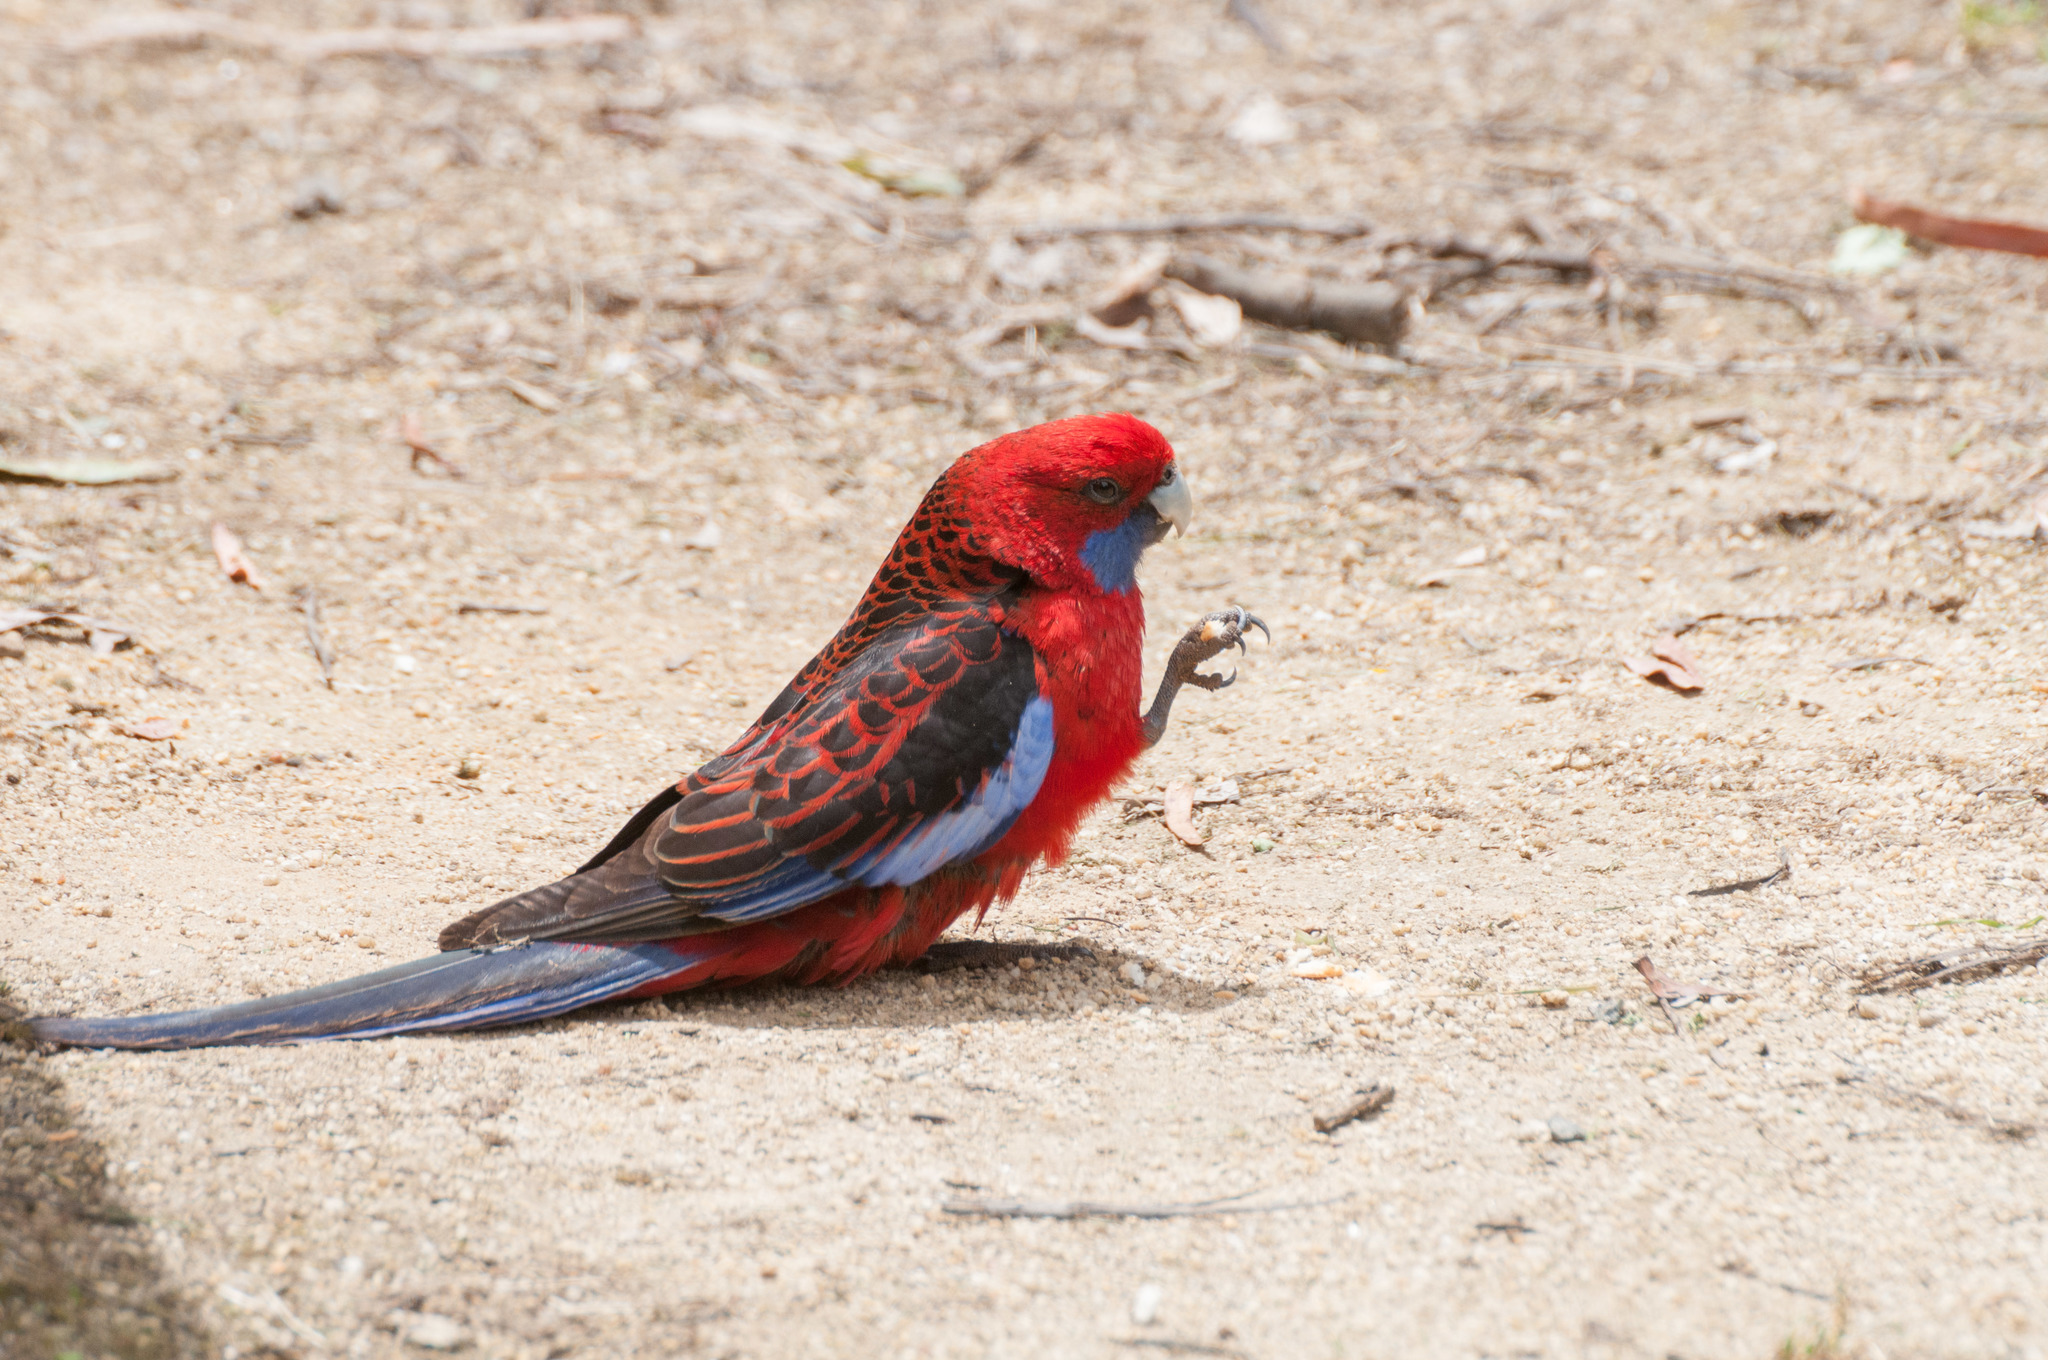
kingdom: Animalia
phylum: Chordata
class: Aves
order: Psittaciformes
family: Psittacidae
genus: Platycercus
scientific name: Platycercus elegans
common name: Crimson rosella
